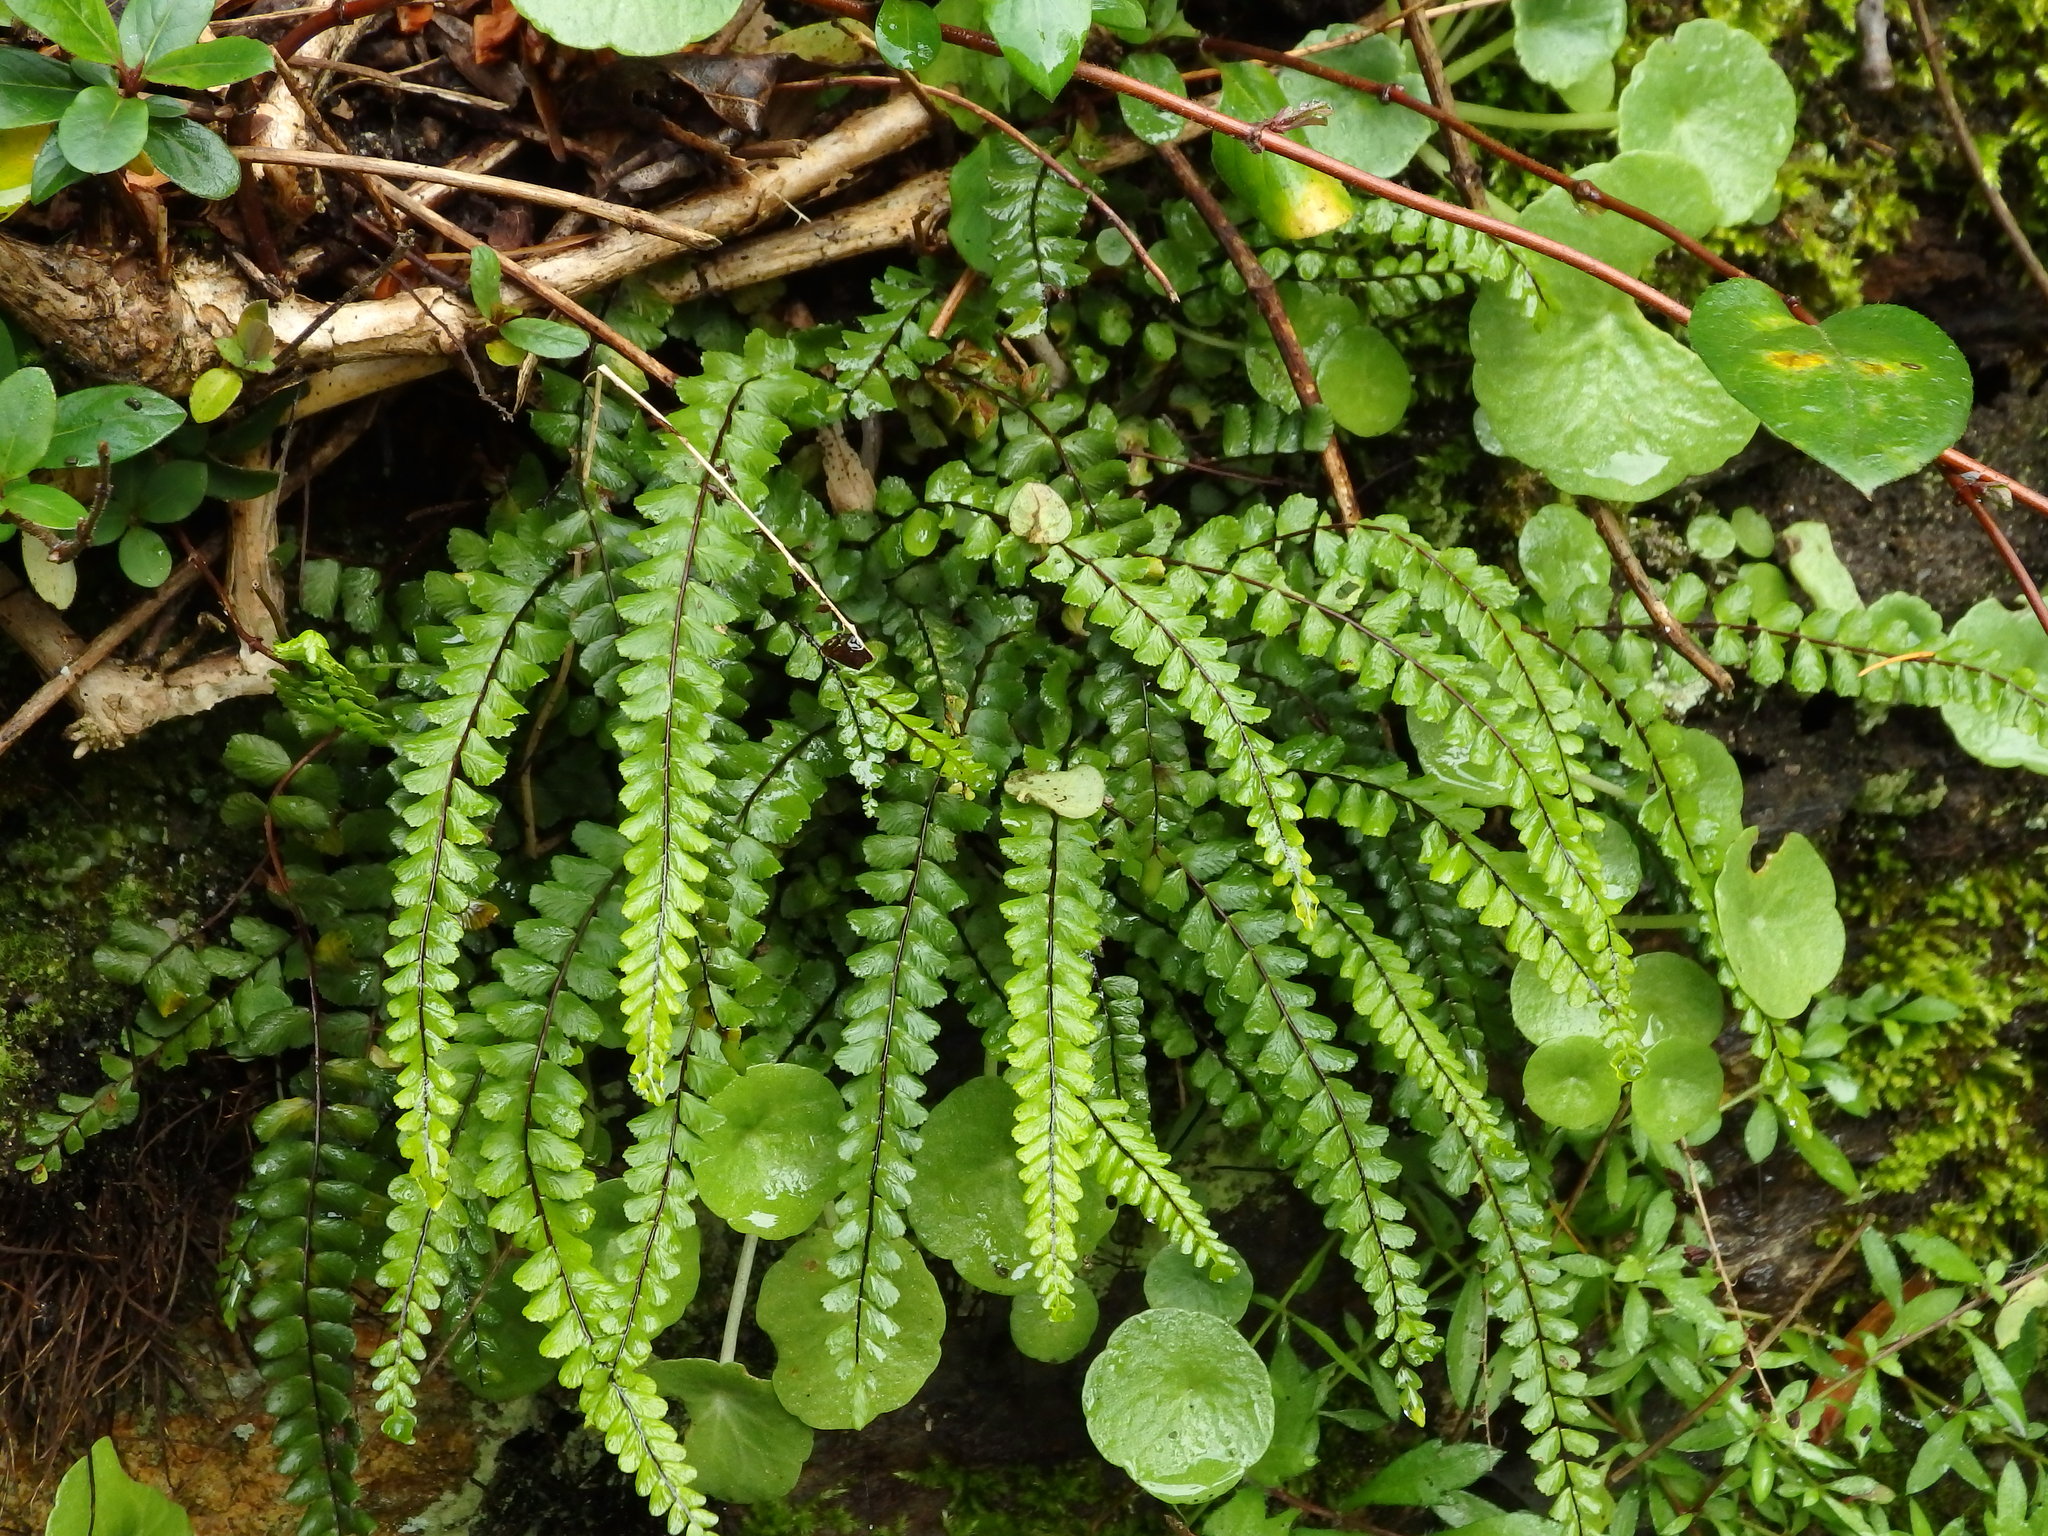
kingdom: Plantae
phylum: Tracheophyta
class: Polypodiopsida
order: Polypodiales
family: Aspleniaceae
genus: Asplenium
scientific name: Asplenium quadrivalens
